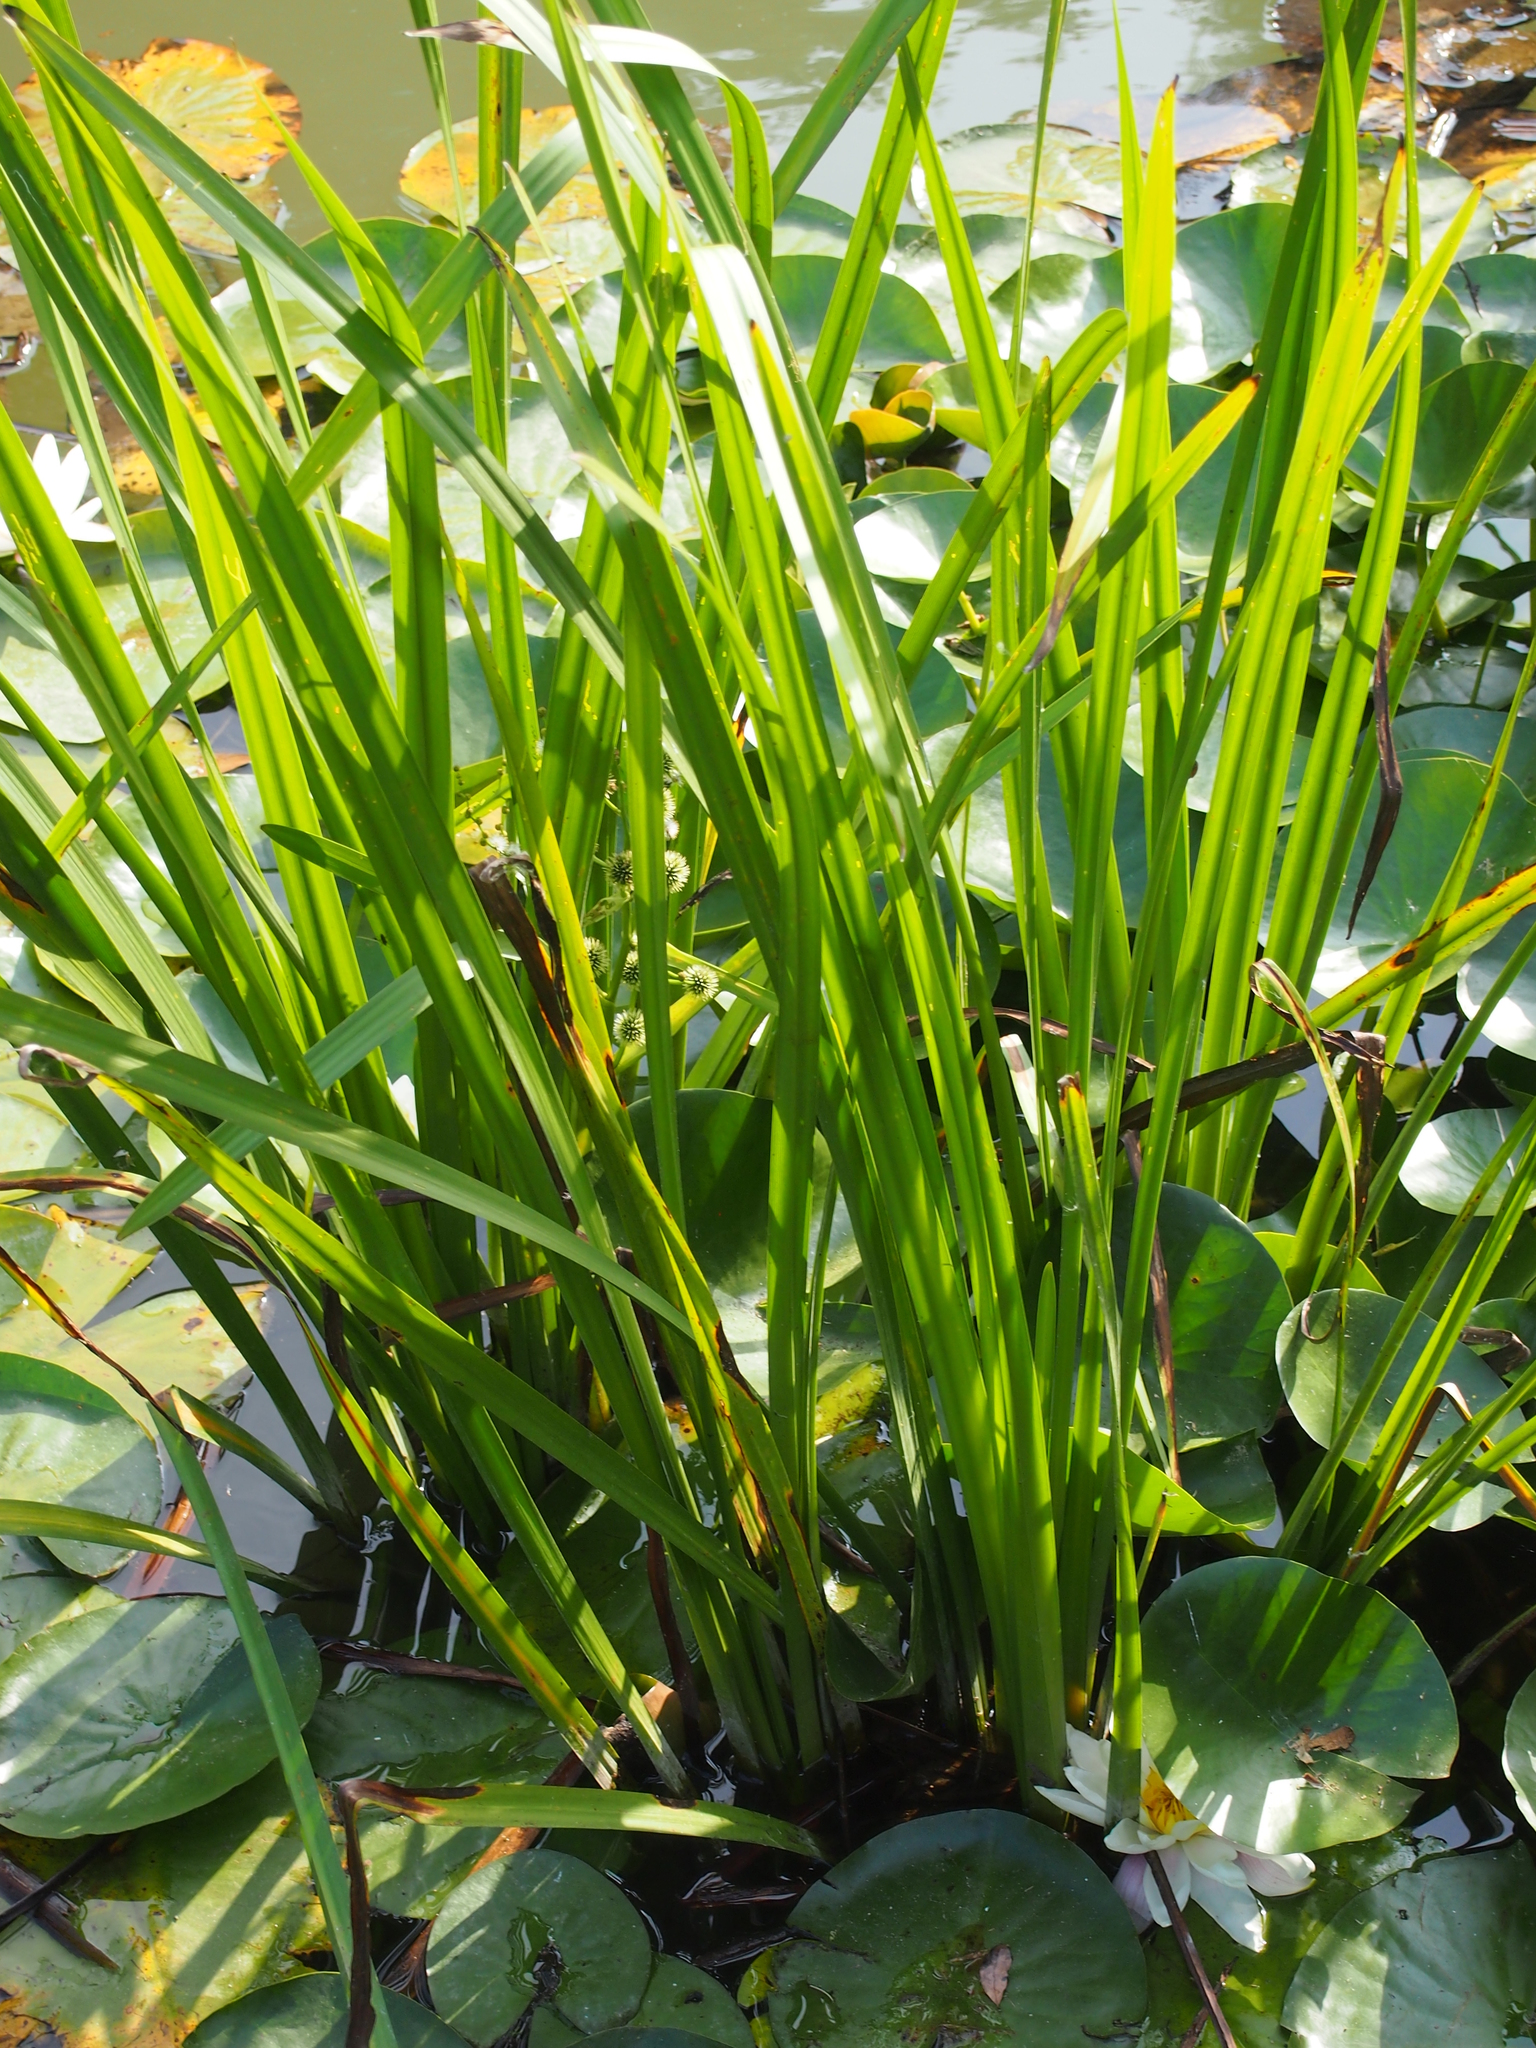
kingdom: Plantae
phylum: Tracheophyta
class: Liliopsida
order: Poales
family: Typhaceae
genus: Sparganium
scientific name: Sparganium erectum
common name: Branched bur-reed
